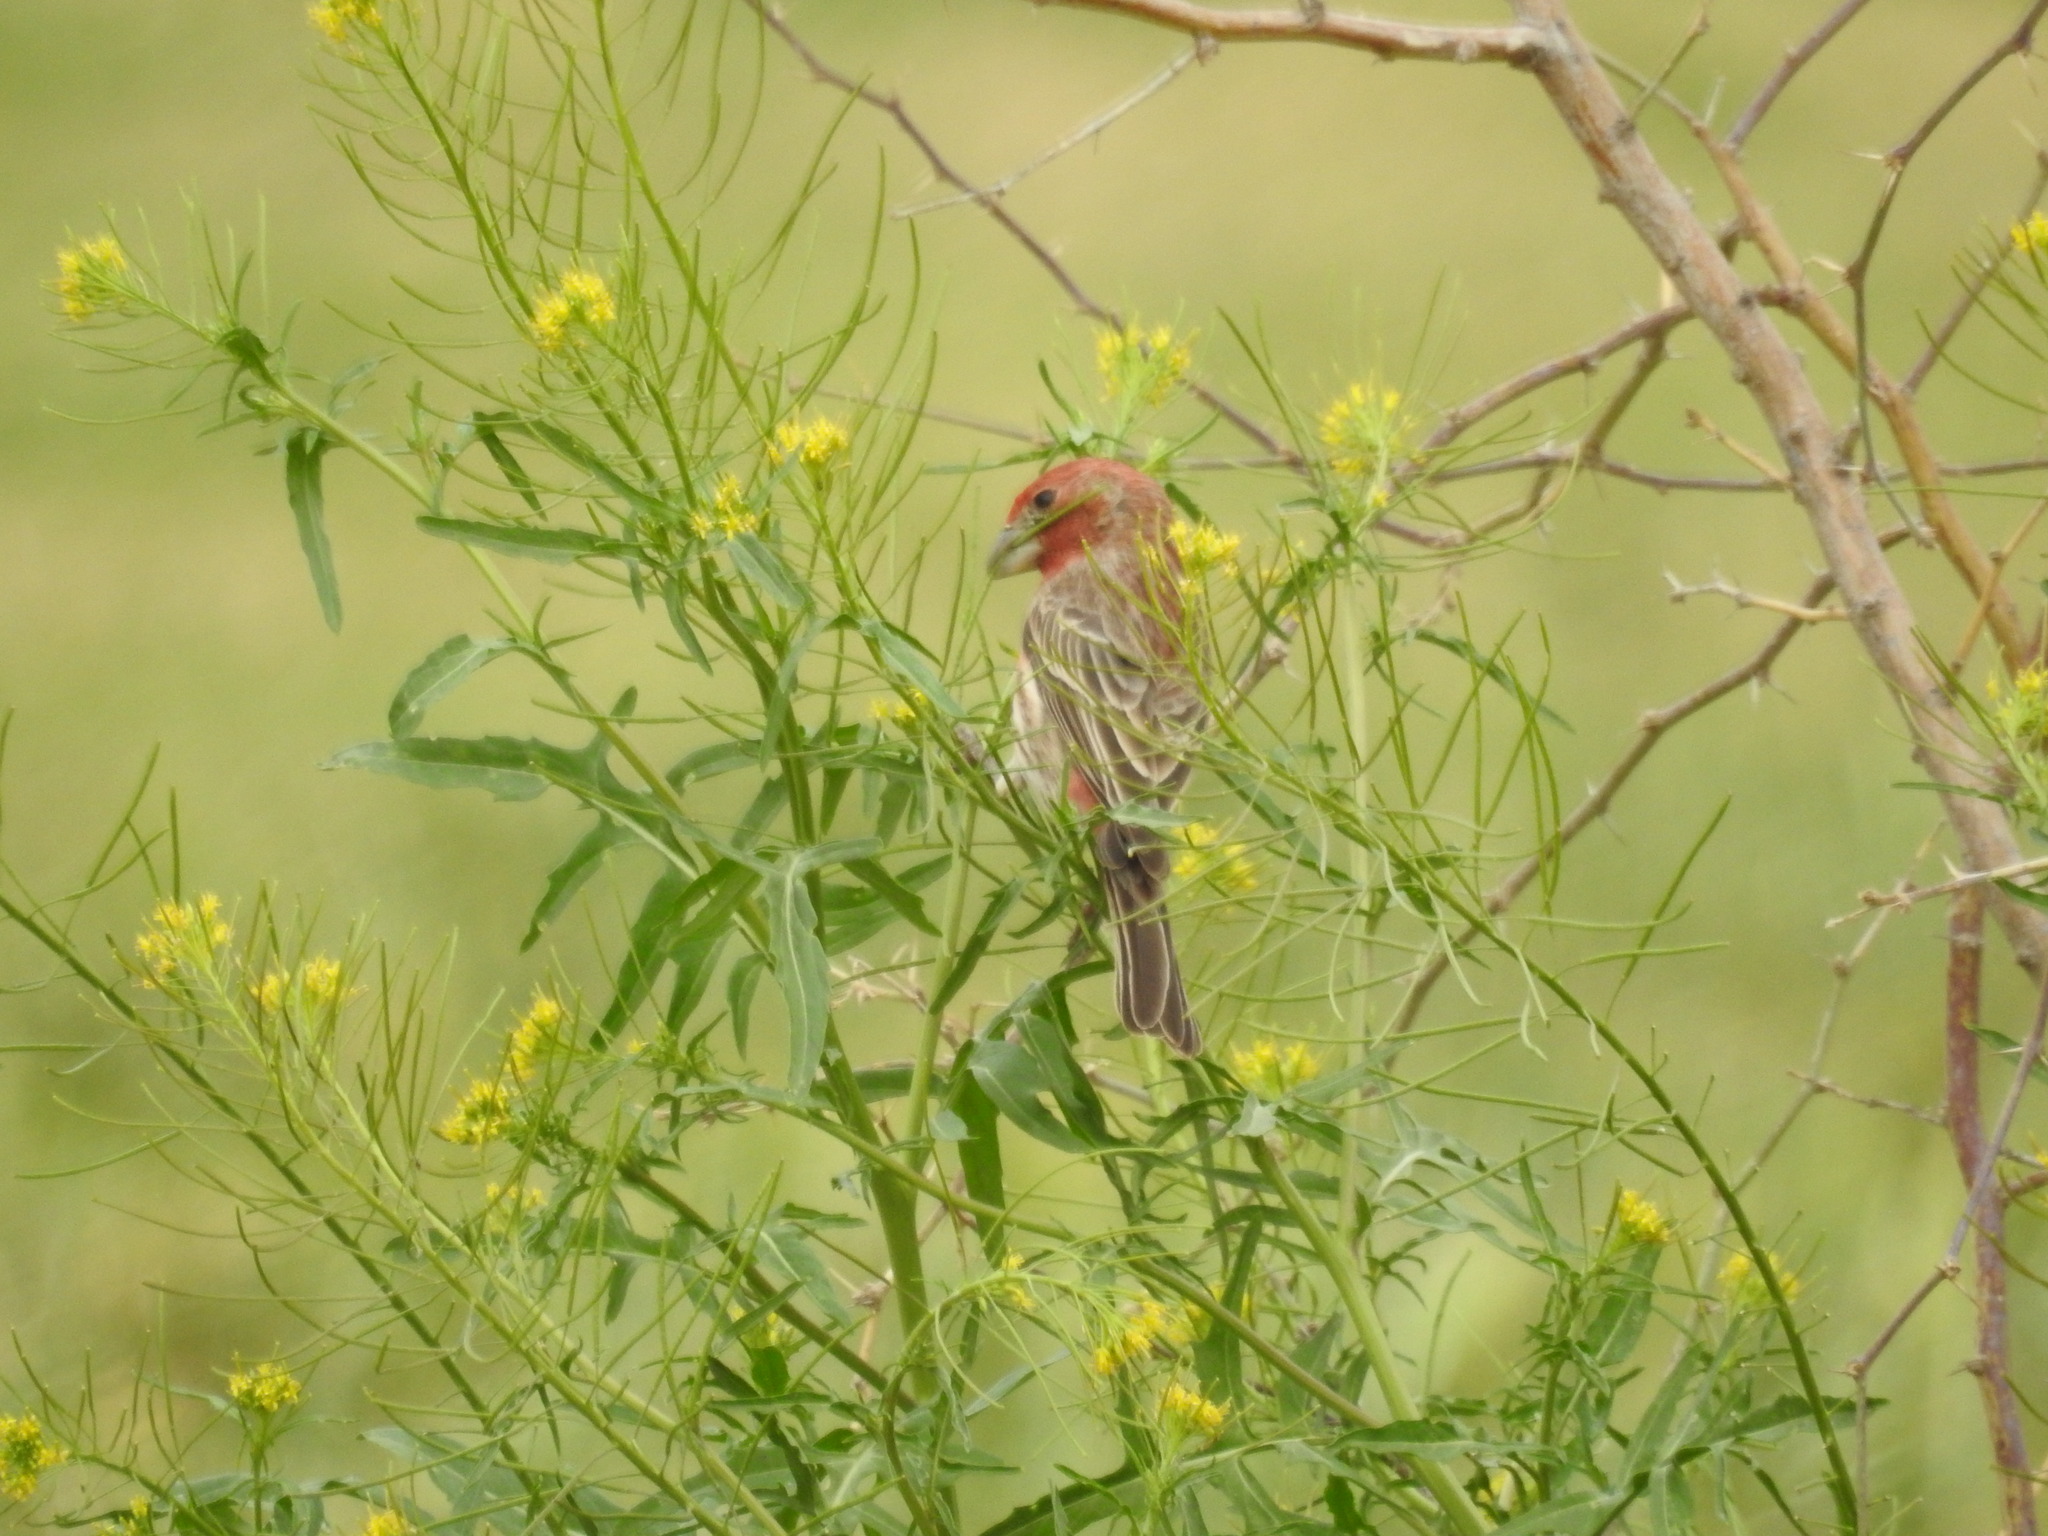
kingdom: Animalia
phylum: Chordata
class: Aves
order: Passeriformes
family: Fringillidae
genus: Haemorhous
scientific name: Haemorhous mexicanus
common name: House finch
